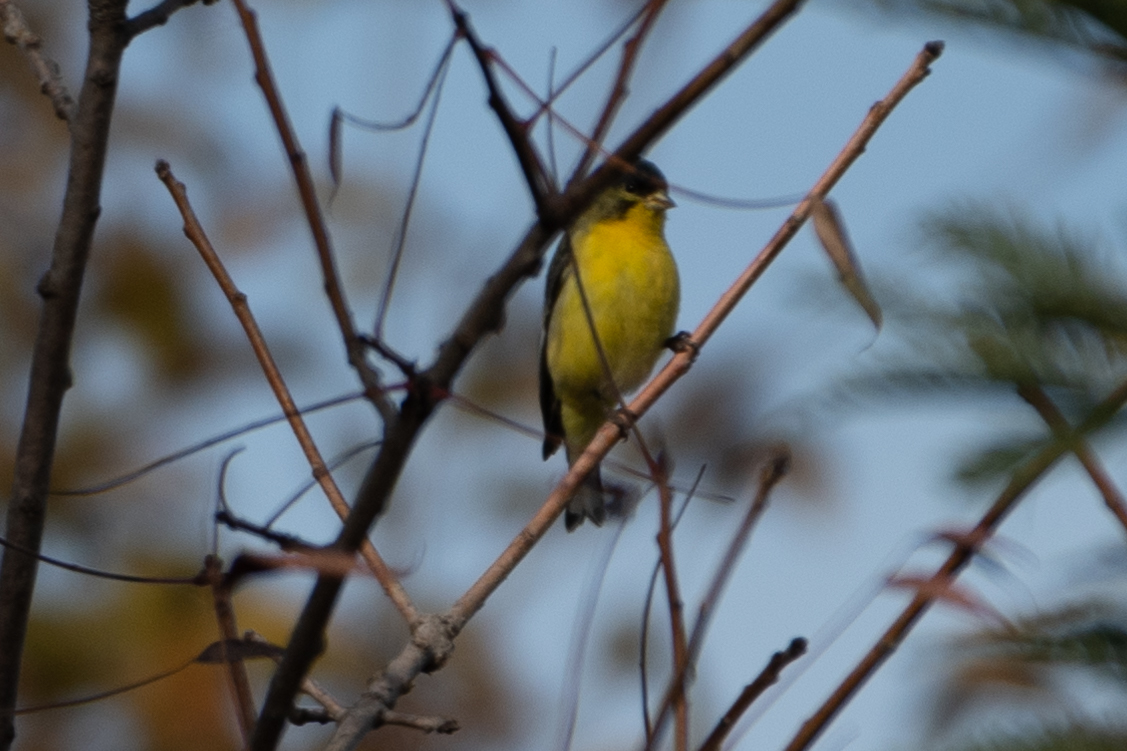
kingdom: Animalia
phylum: Chordata
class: Aves
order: Passeriformes
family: Fringillidae
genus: Spinus
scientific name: Spinus psaltria
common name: Lesser goldfinch
